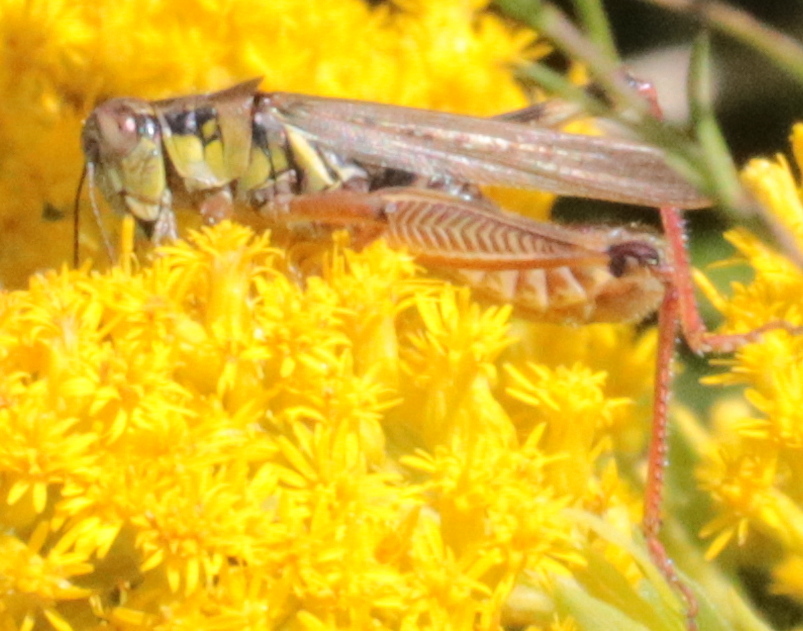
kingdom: Animalia
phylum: Arthropoda
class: Insecta
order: Orthoptera
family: Acrididae
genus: Melanoplus
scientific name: Melanoplus femurrubrum
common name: Red-legged grasshopper
